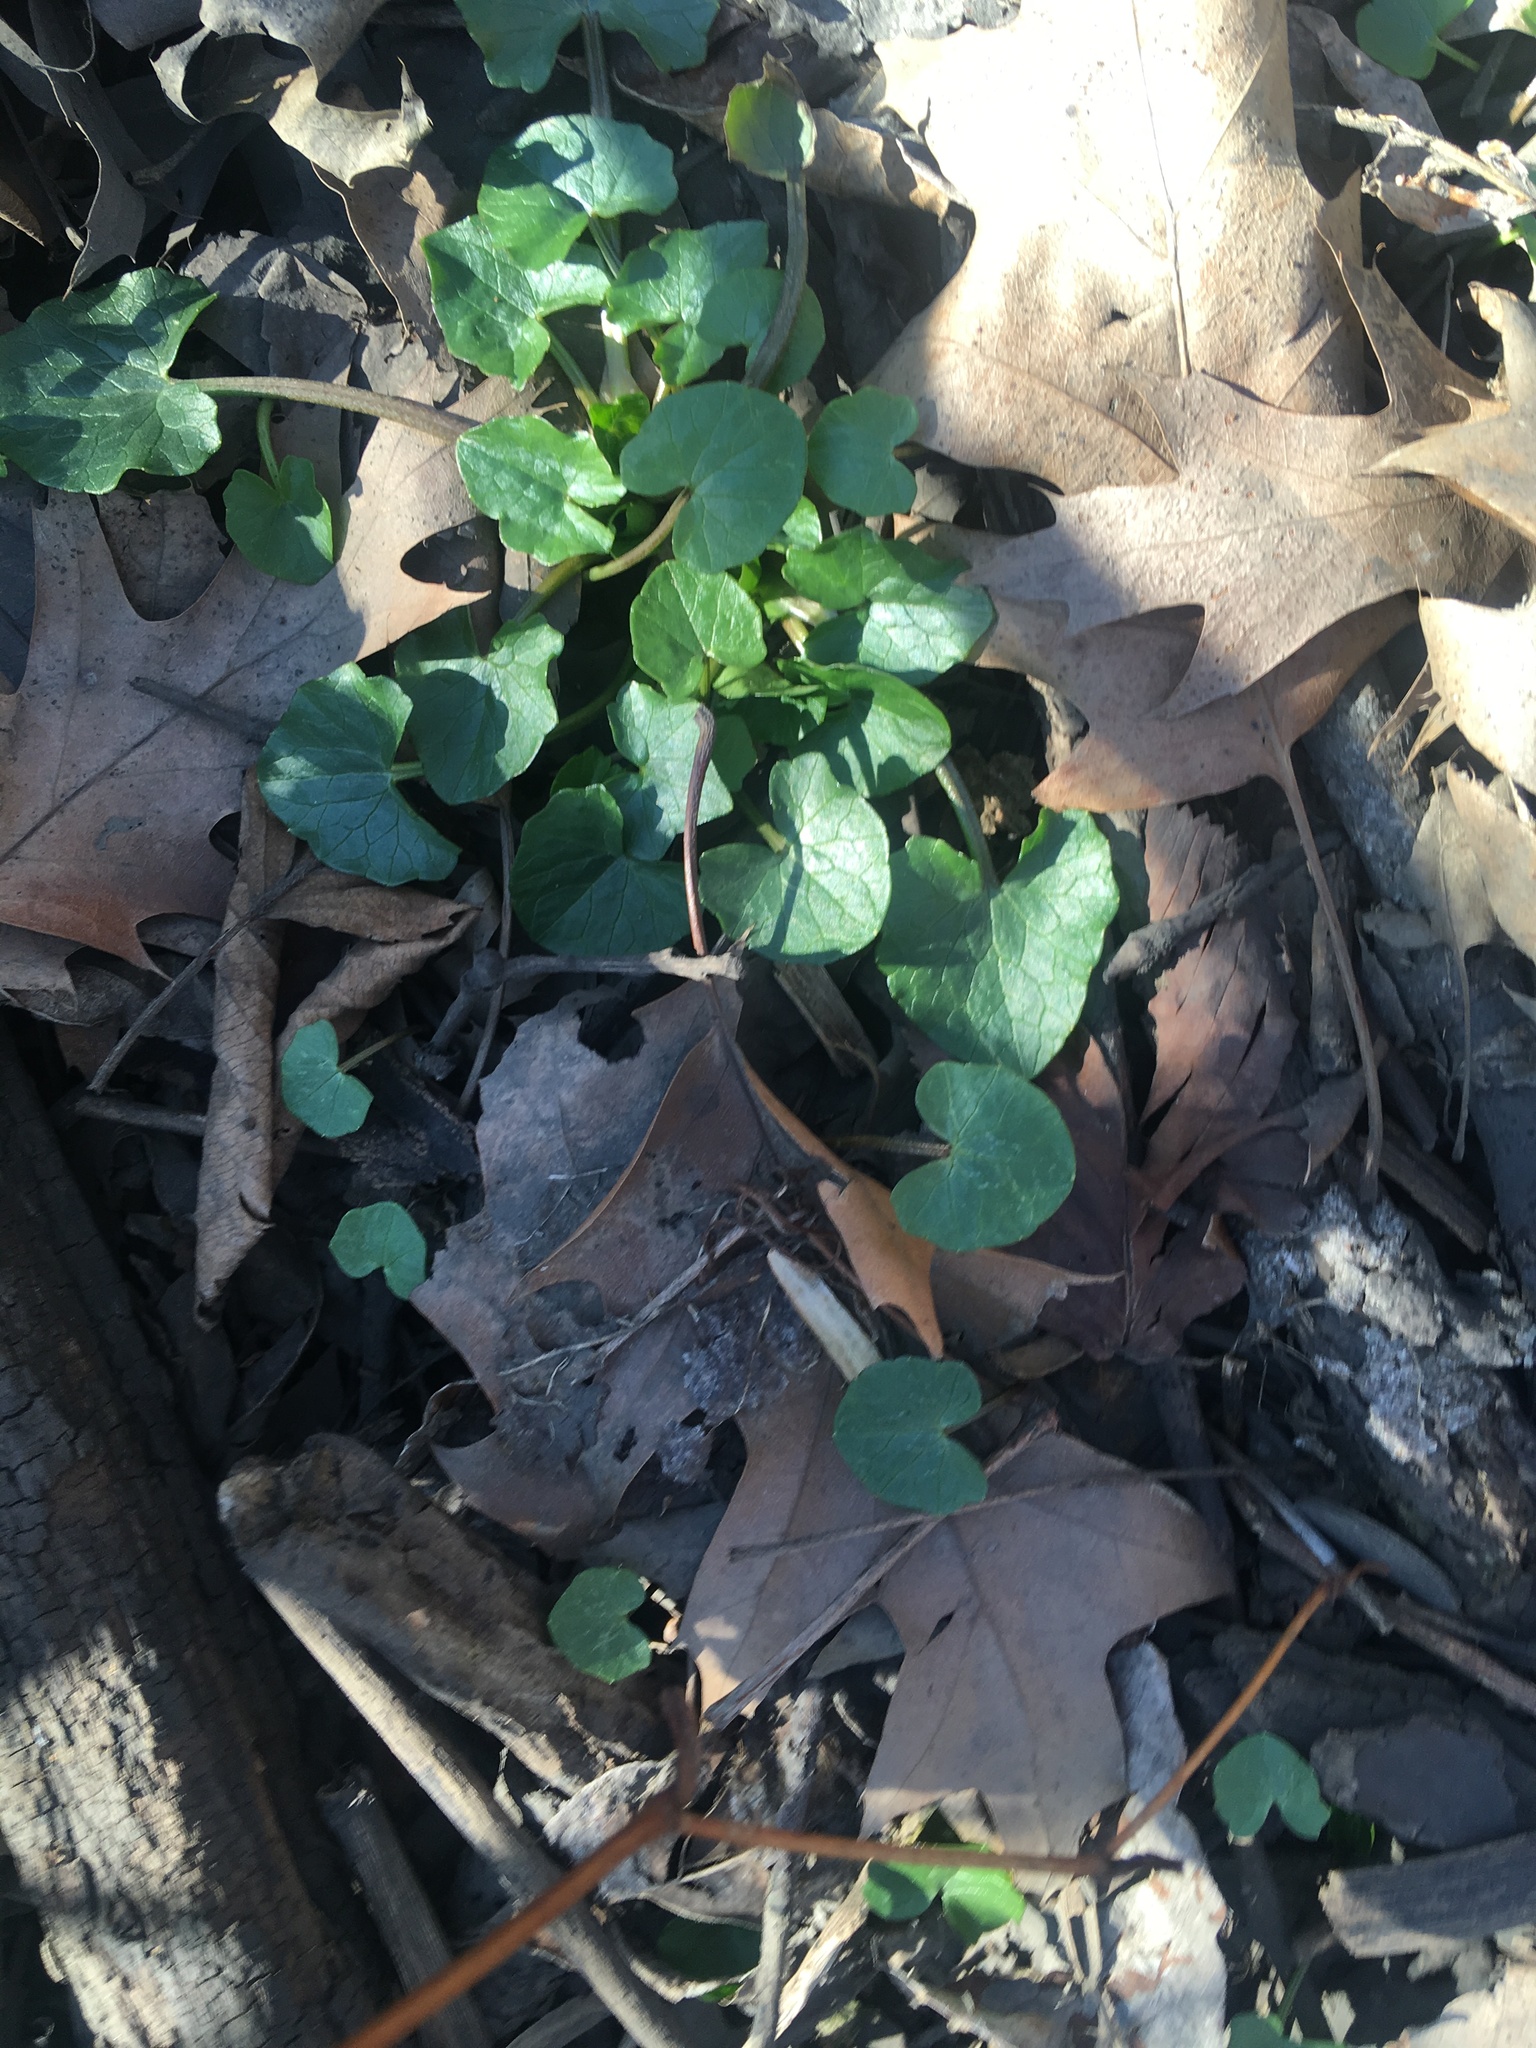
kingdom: Plantae
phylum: Tracheophyta
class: Magnoliopsida
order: Ranunculales
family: Ranunculaceae
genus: Ficaria
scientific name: Ficaria verna
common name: Lesser celandine
